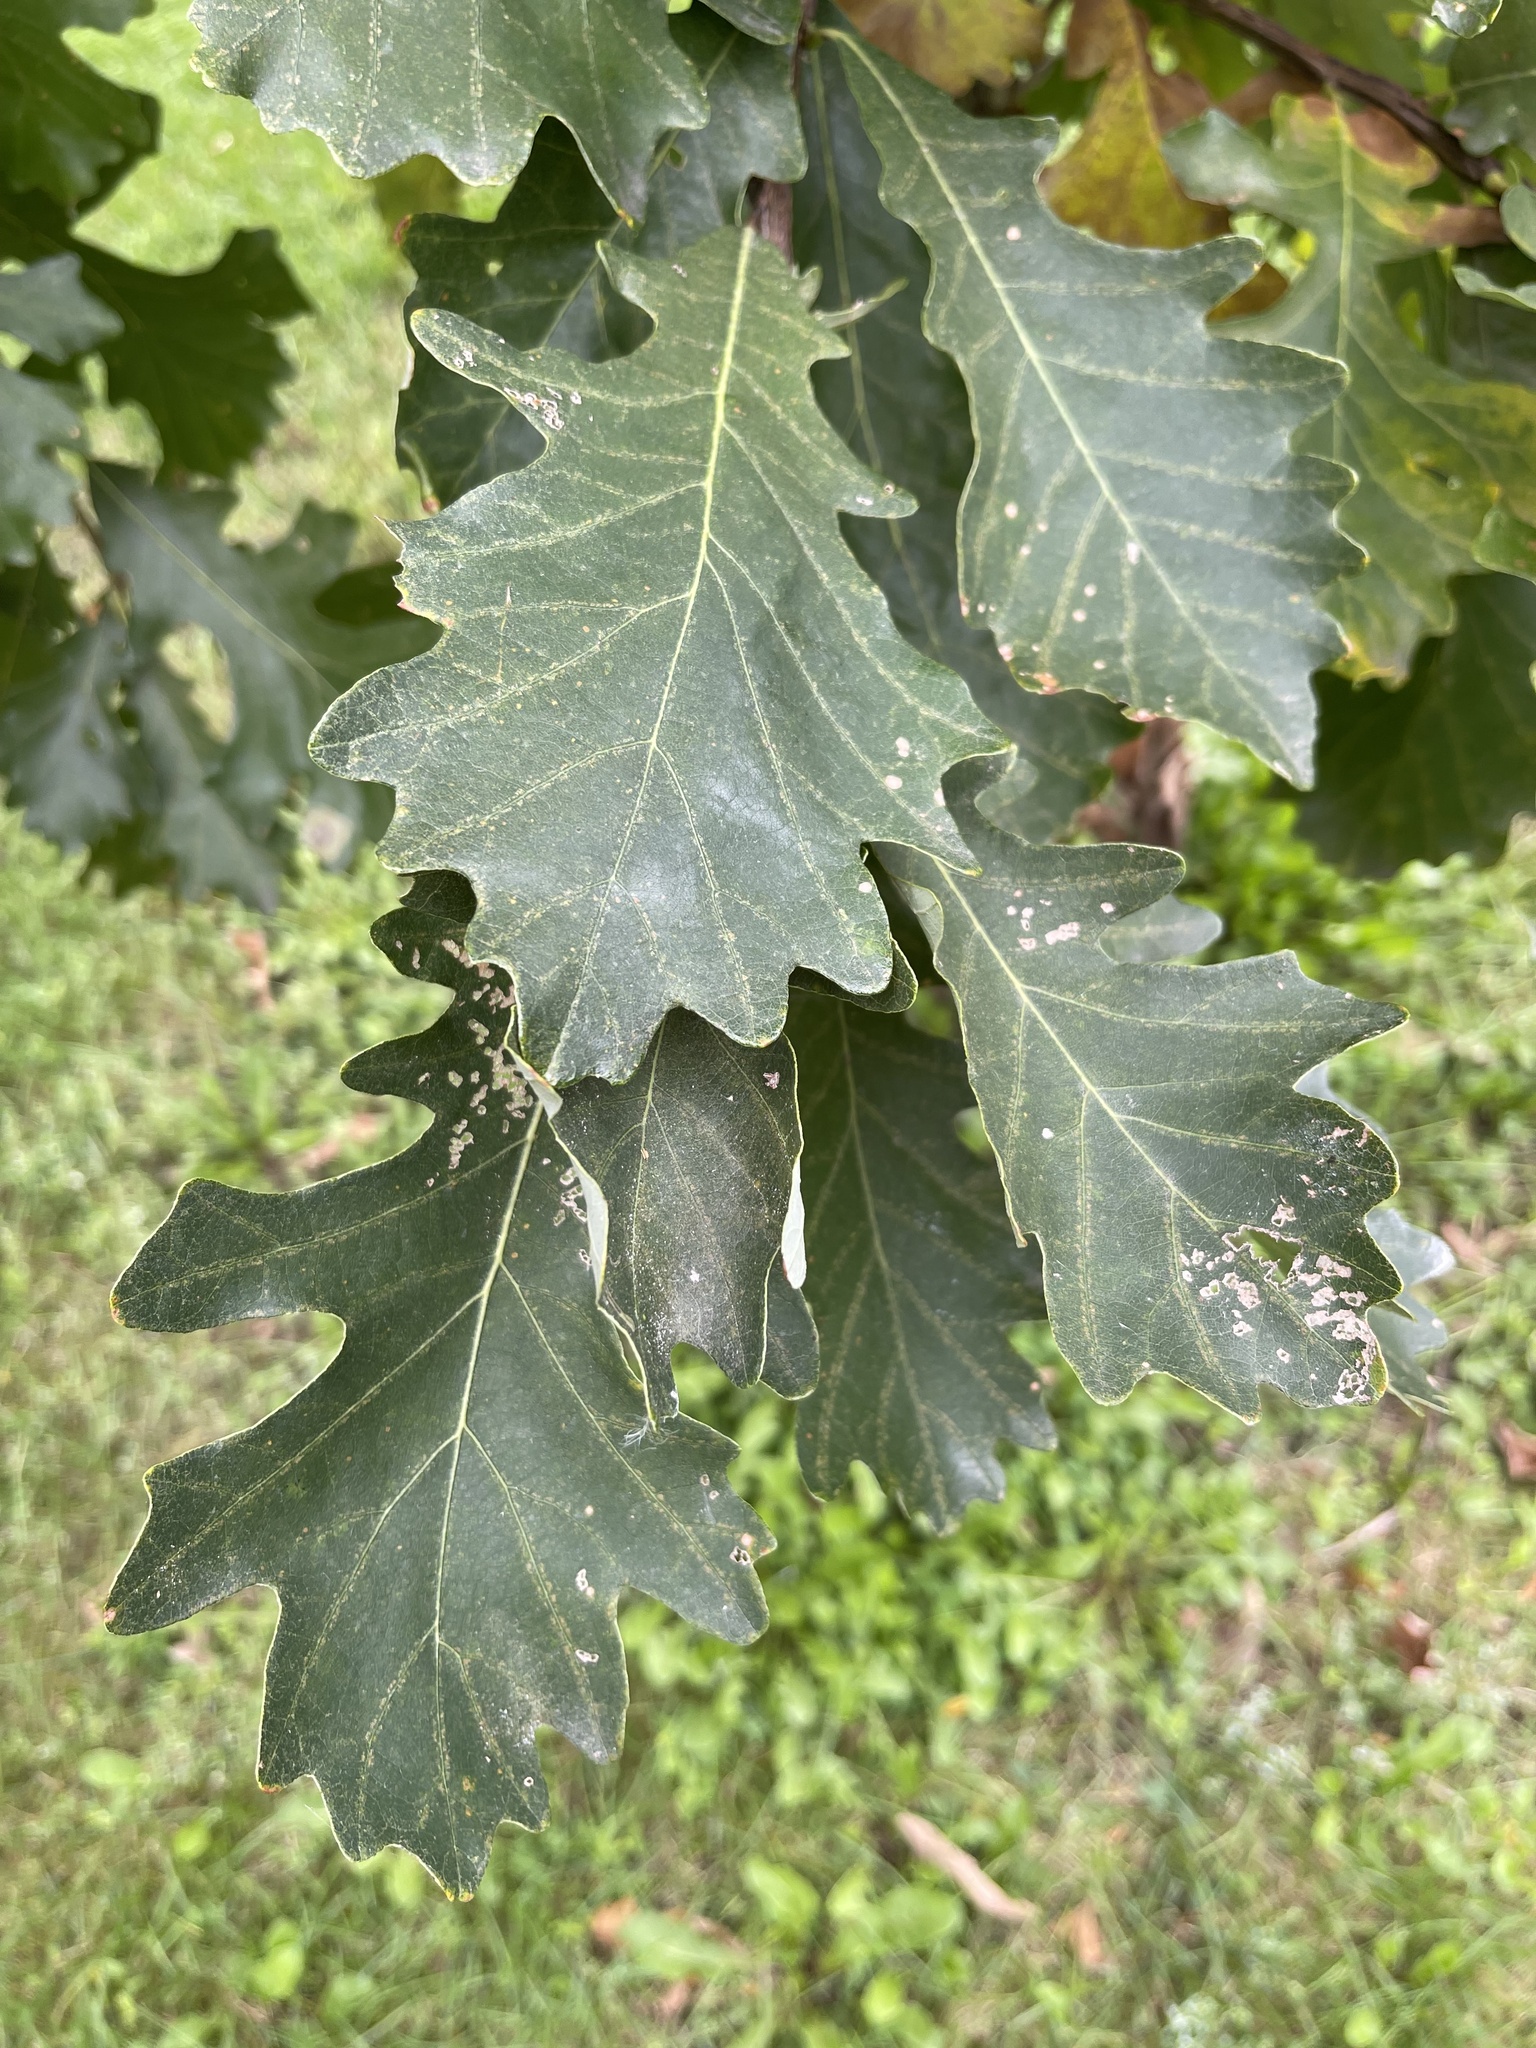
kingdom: Plantae
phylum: Tracheophyta
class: Magnoliopsida
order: Fagales
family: Fagaceae
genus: Quercus
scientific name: Quercus macrocarpa
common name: Bur oak
